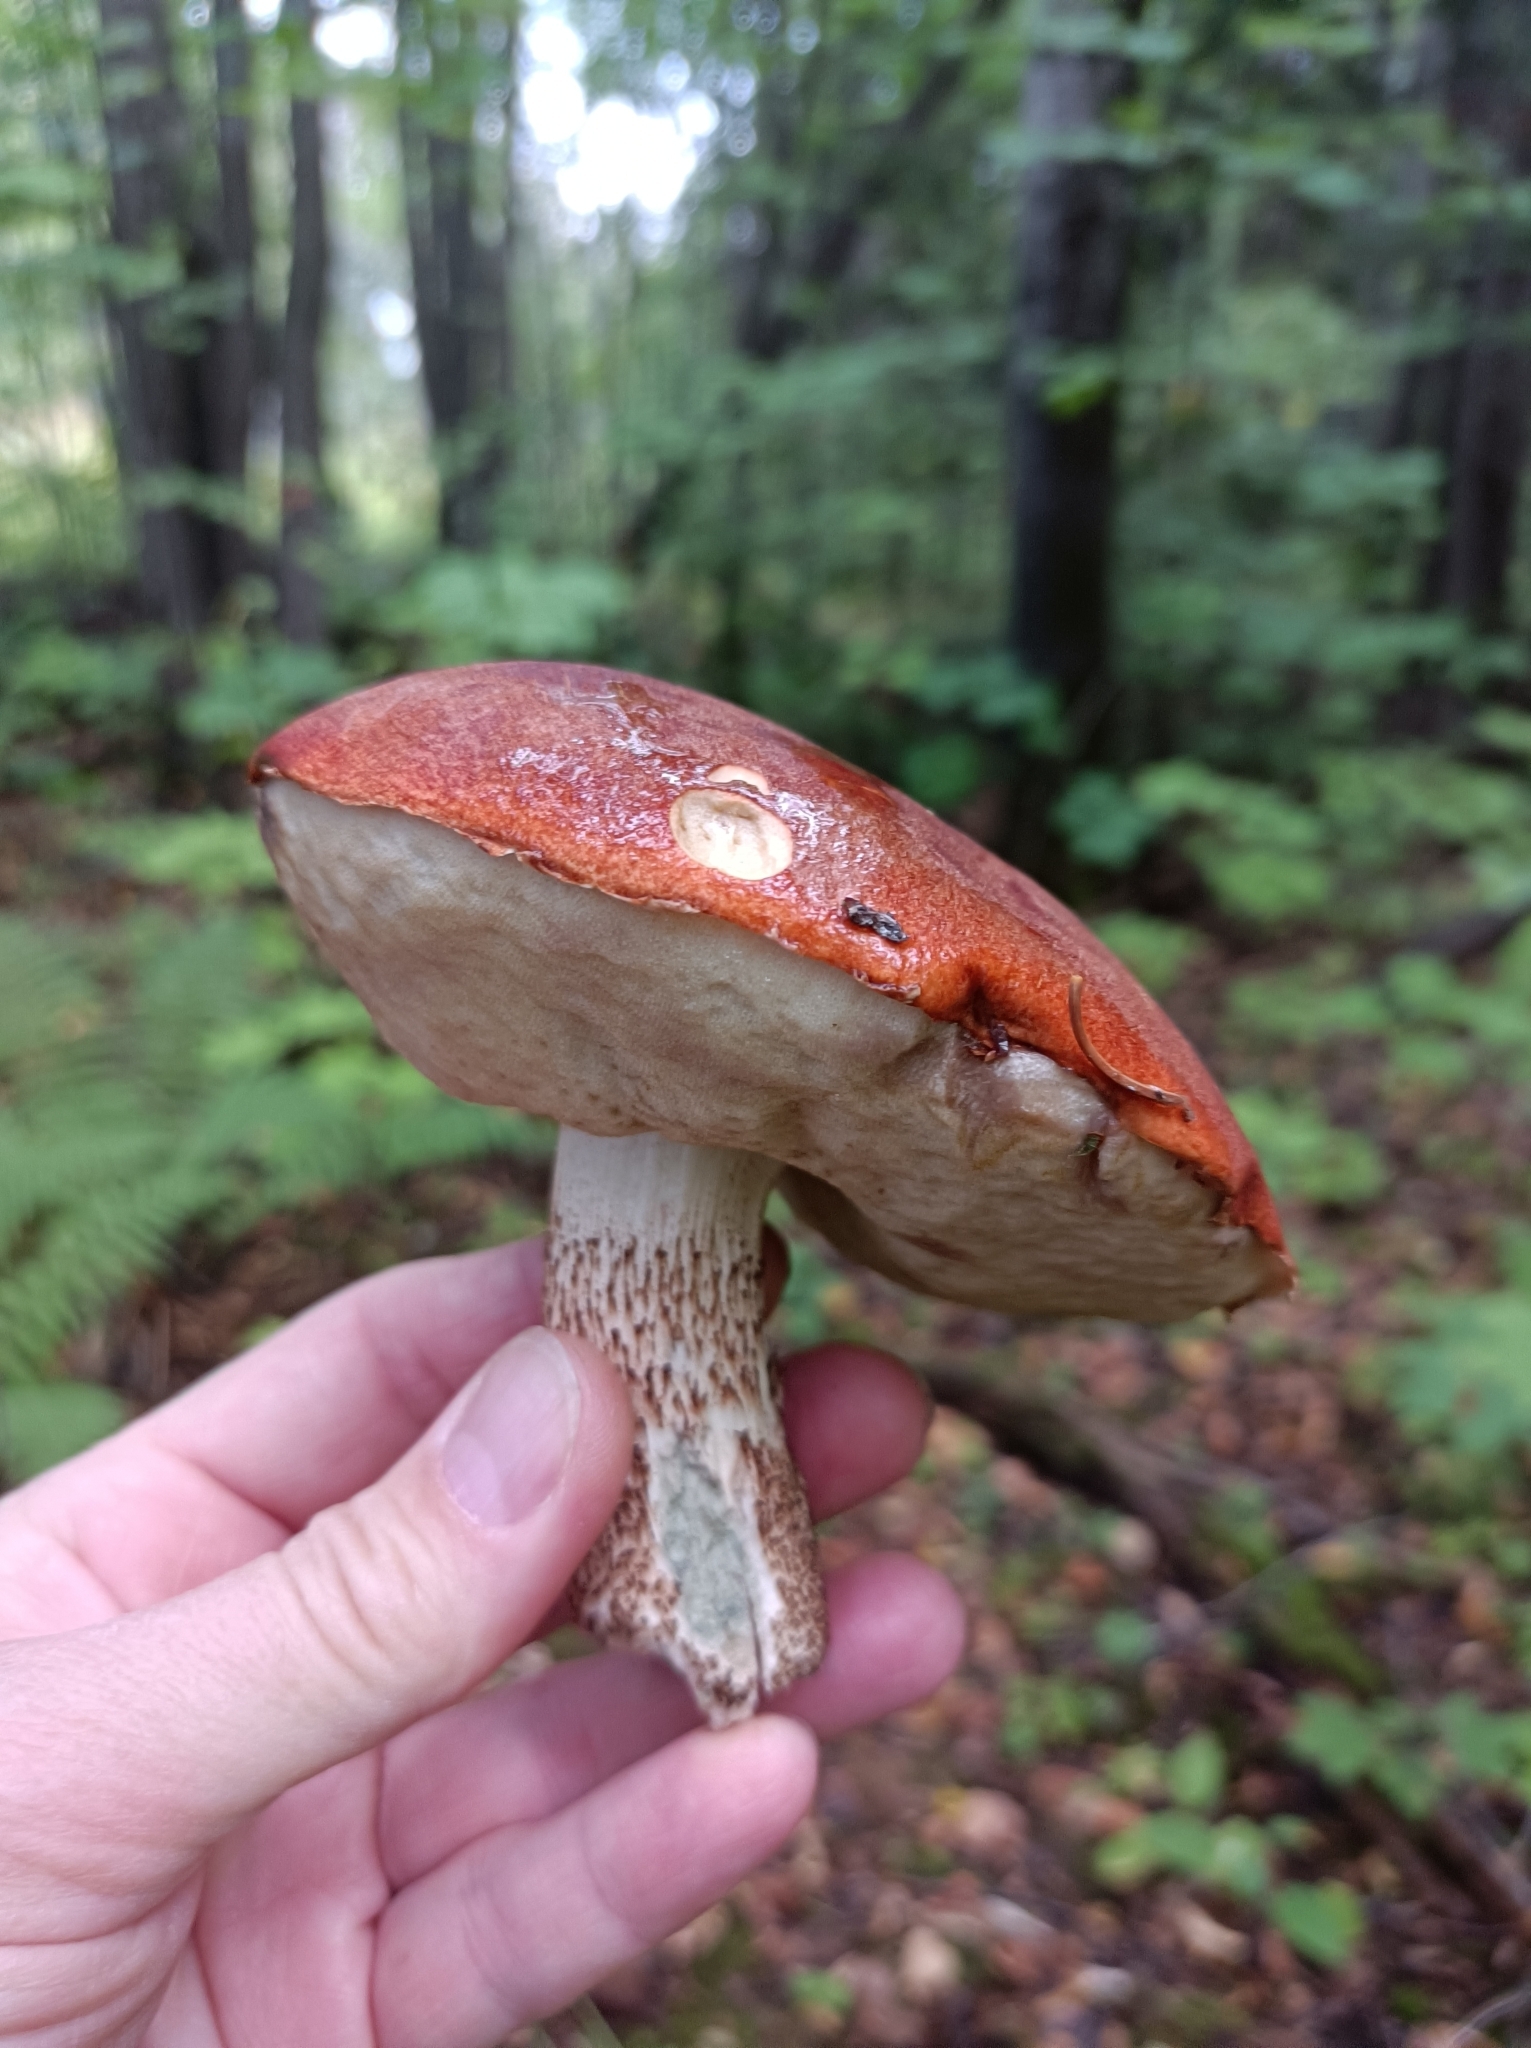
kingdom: Fungi
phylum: Basidiomycota
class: Agaricomycetes
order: Boletales
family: Boletaceae
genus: Leccinum
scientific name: Leccinum aurantiacum
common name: Orange bolete
